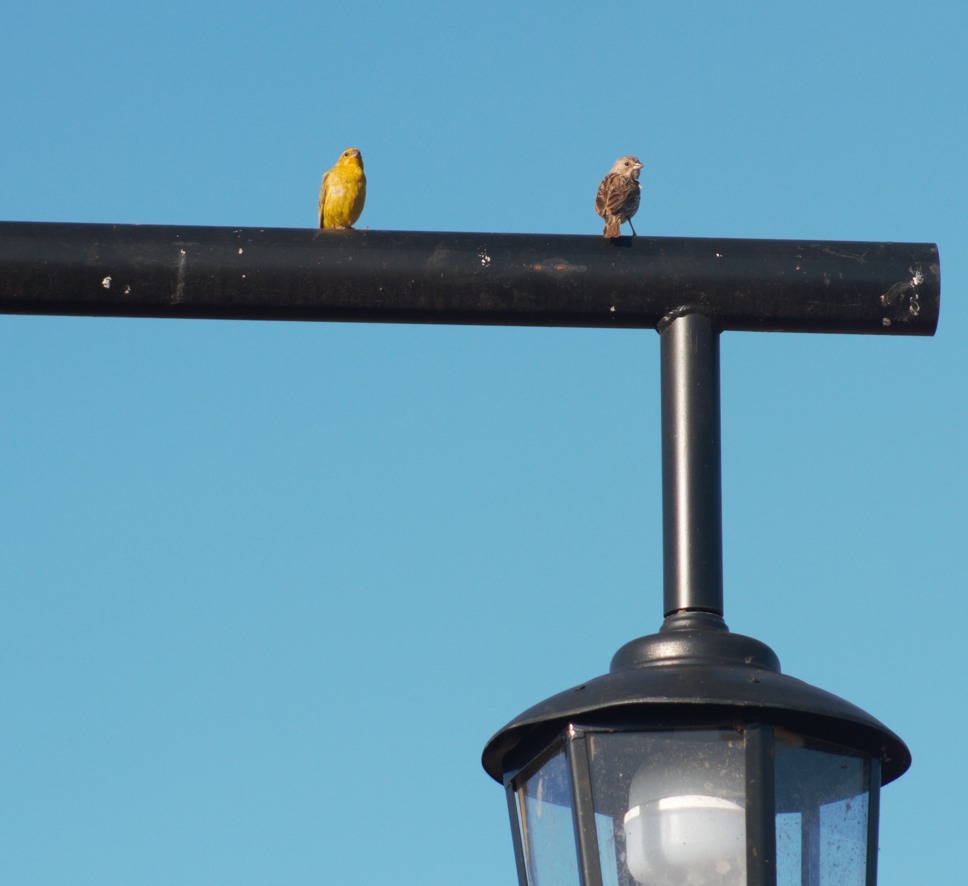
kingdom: Animalia
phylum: Chordata
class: Aves
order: Passeriformes
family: Thraupidae
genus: Sicalis
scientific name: Sicalis flaveola
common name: Saffron finch
